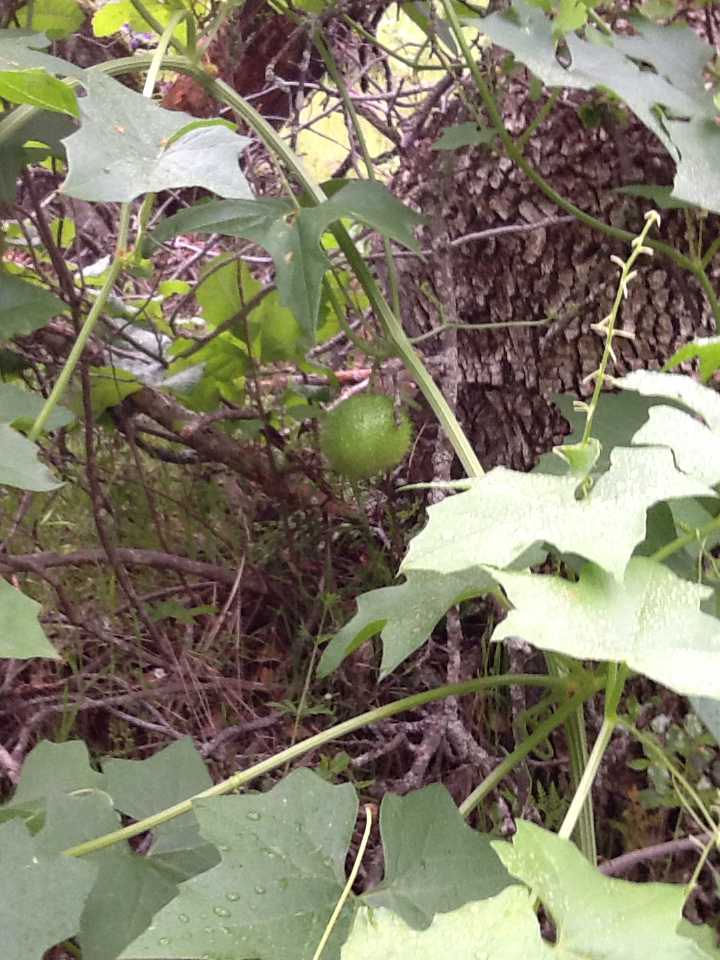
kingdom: Plantae
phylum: Tracheophyta
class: Magnoliopsida
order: Cucurbitales
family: Cucurbitaceae
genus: Marah
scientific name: Marah fabacea
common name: California manroot
